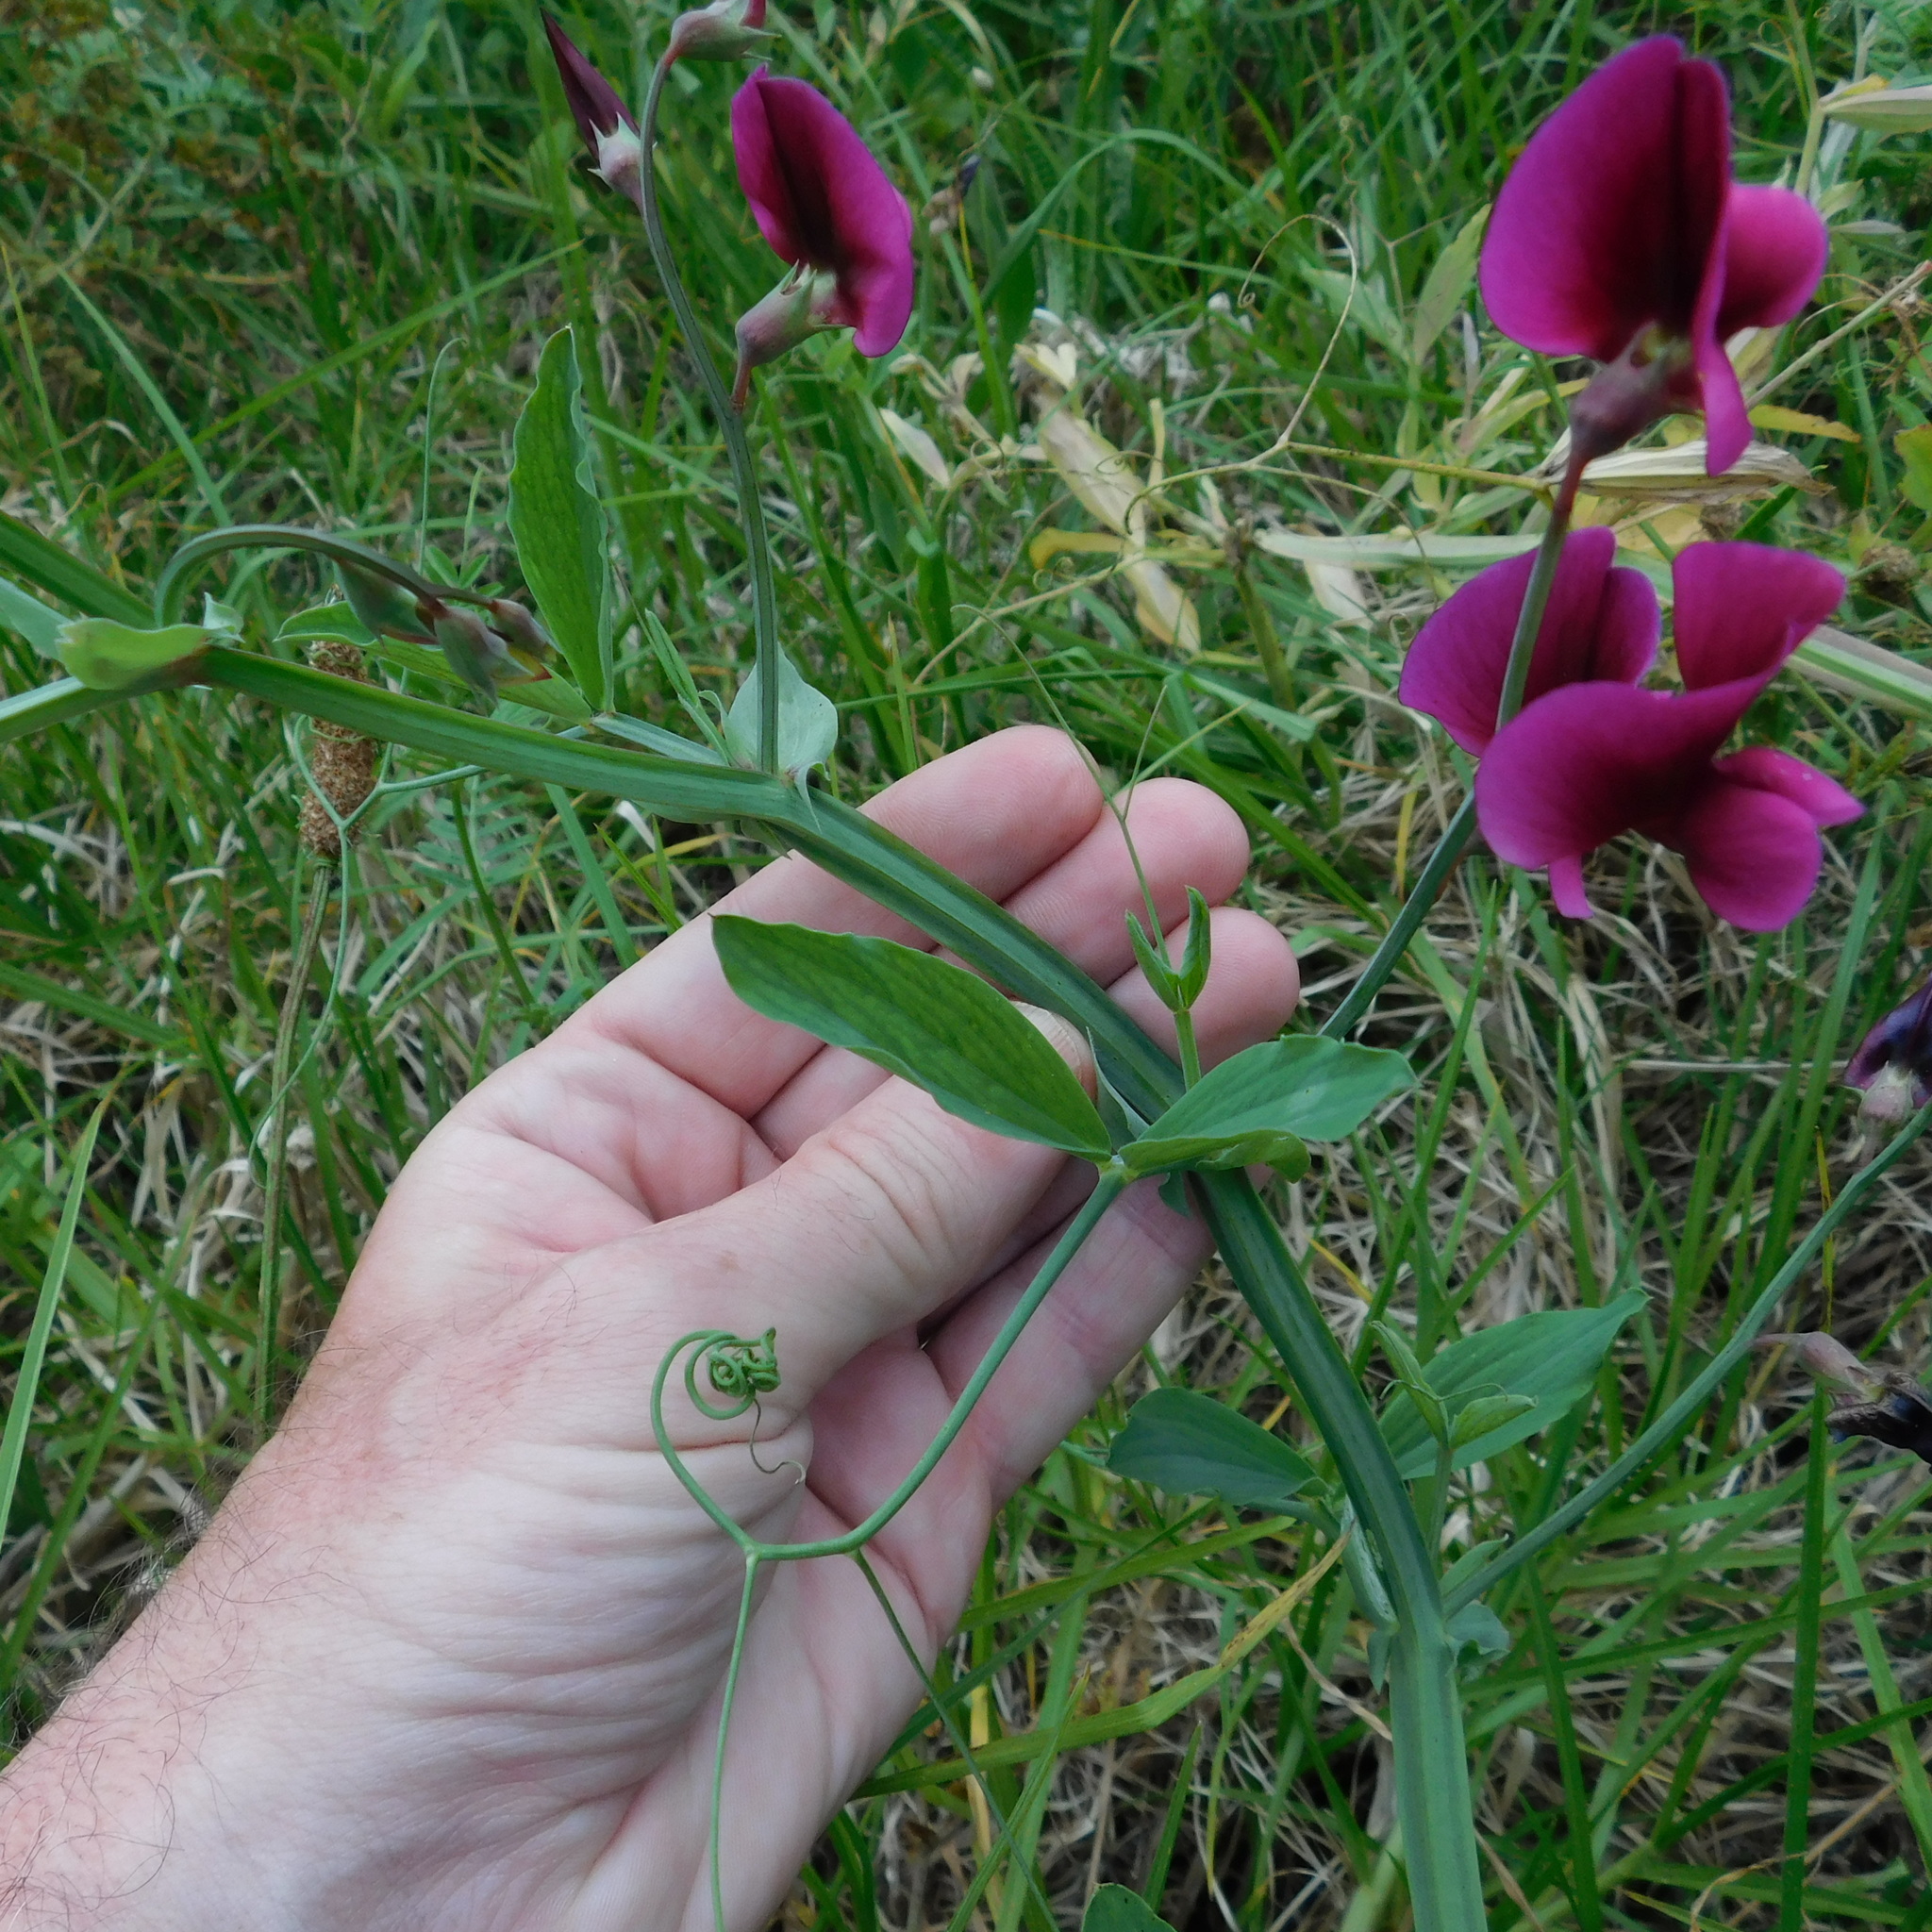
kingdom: Plantae
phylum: Tracheophyta
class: Magnoliopsida
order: Fabales
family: Fabaceae
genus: Lathyrus
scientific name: Lathyrus tingitanus
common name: Tangier pea
